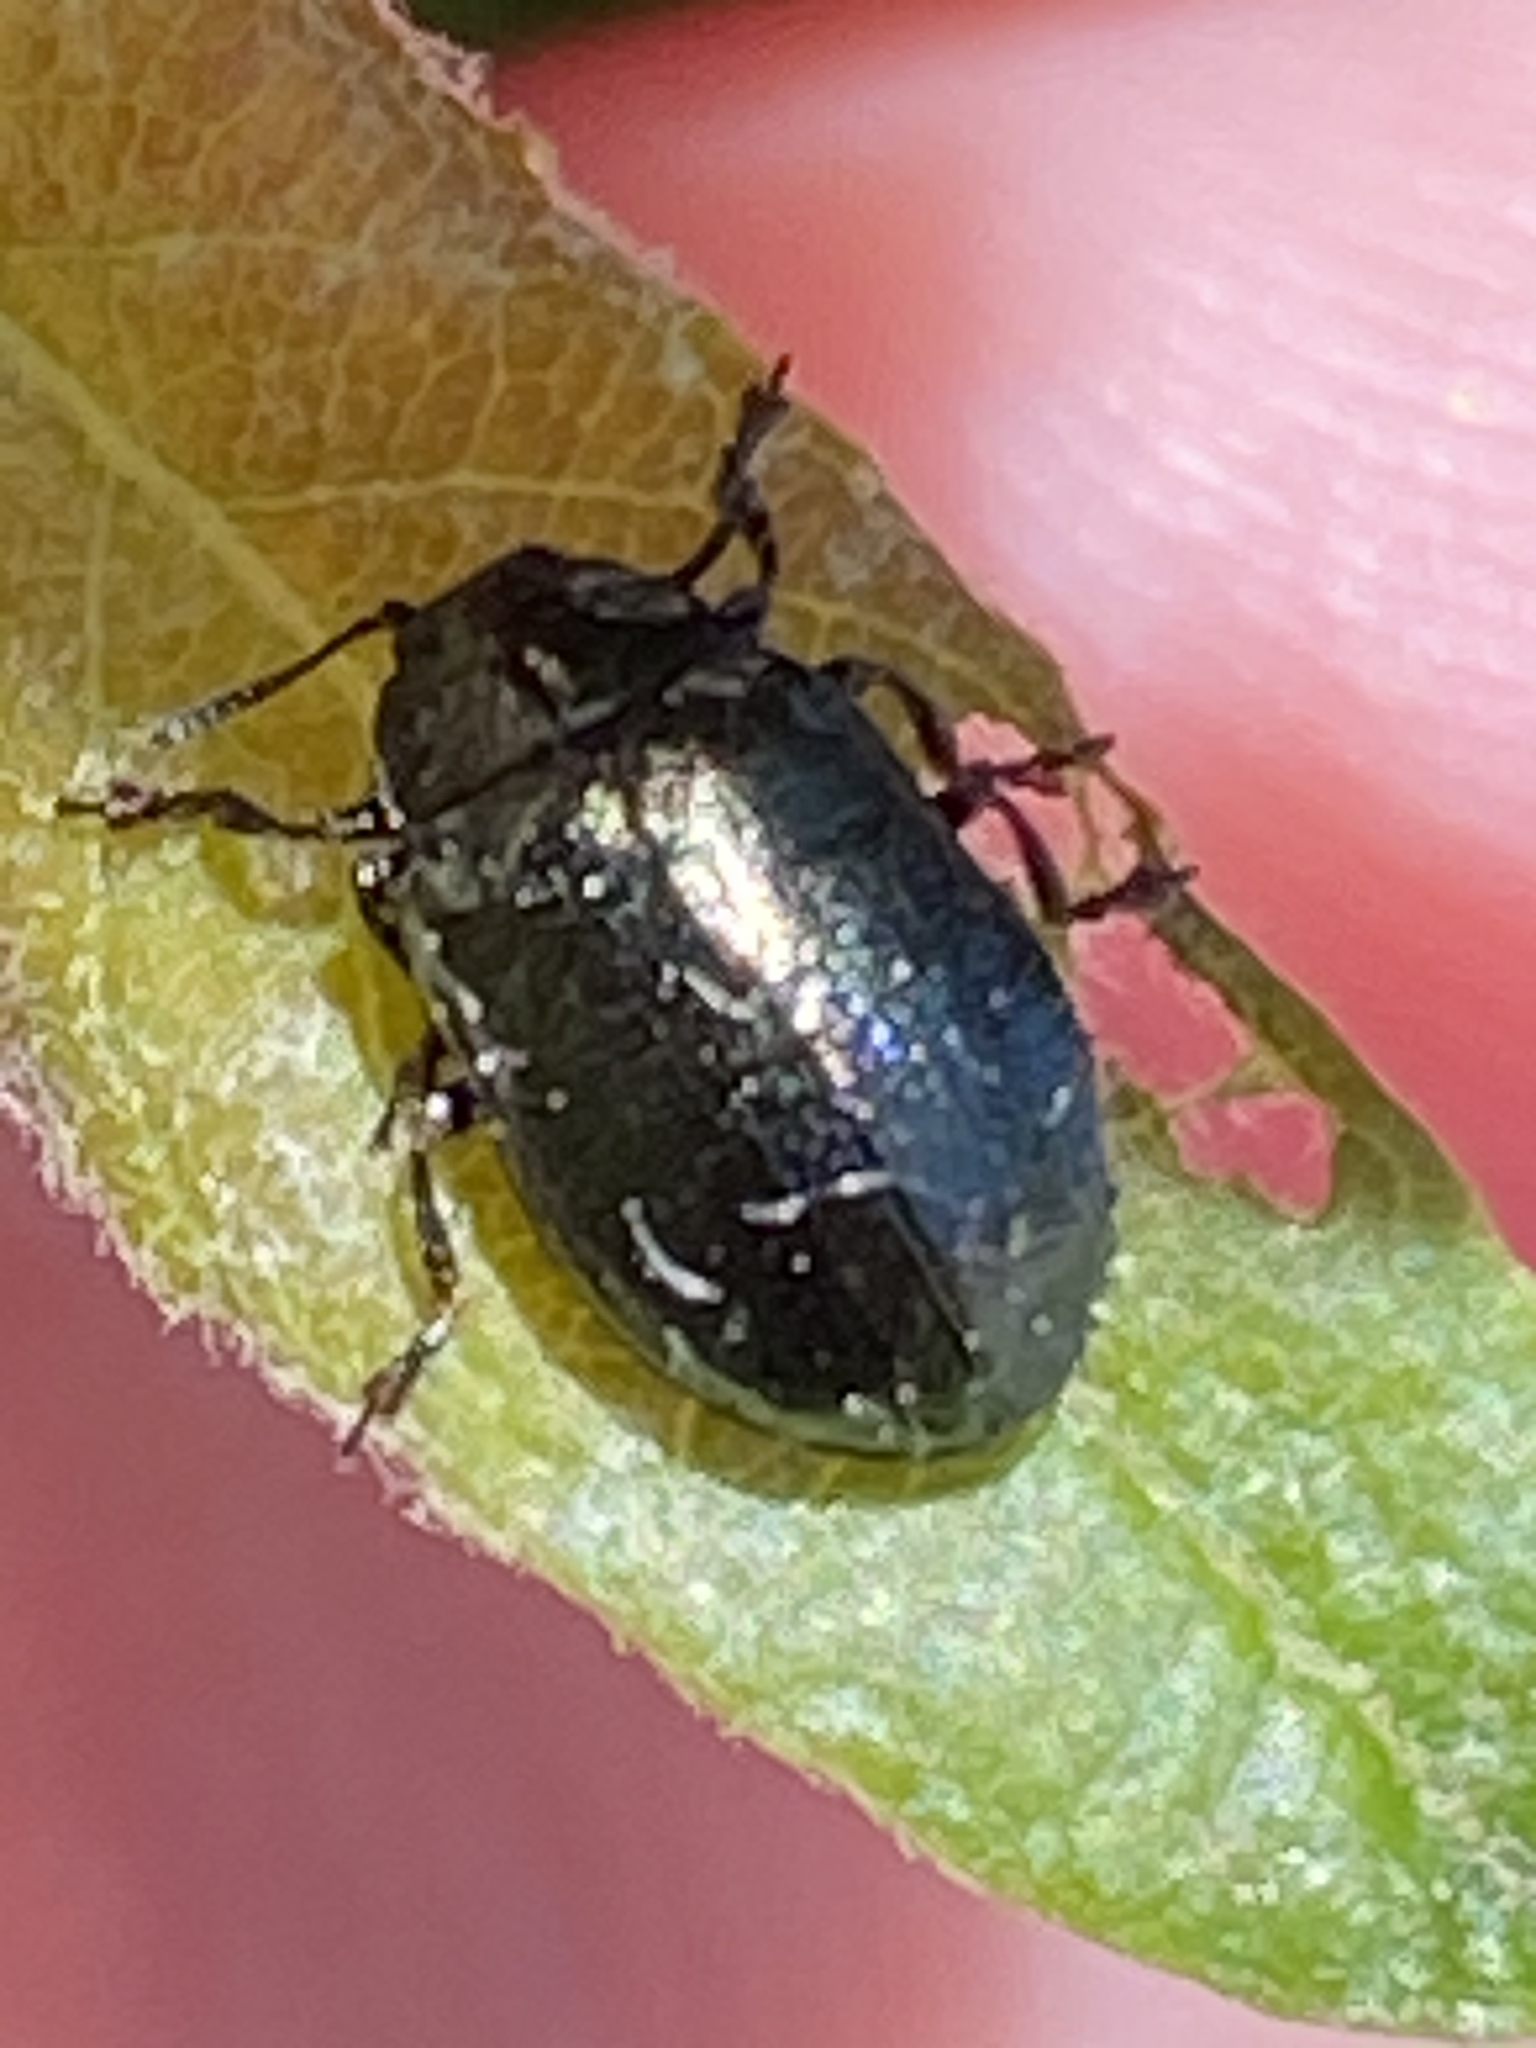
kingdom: Animalia
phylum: Arthropoda
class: Insecta
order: Coleoptera
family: Chrysomelidae
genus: Plagiodera
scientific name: Plagiodera californica
